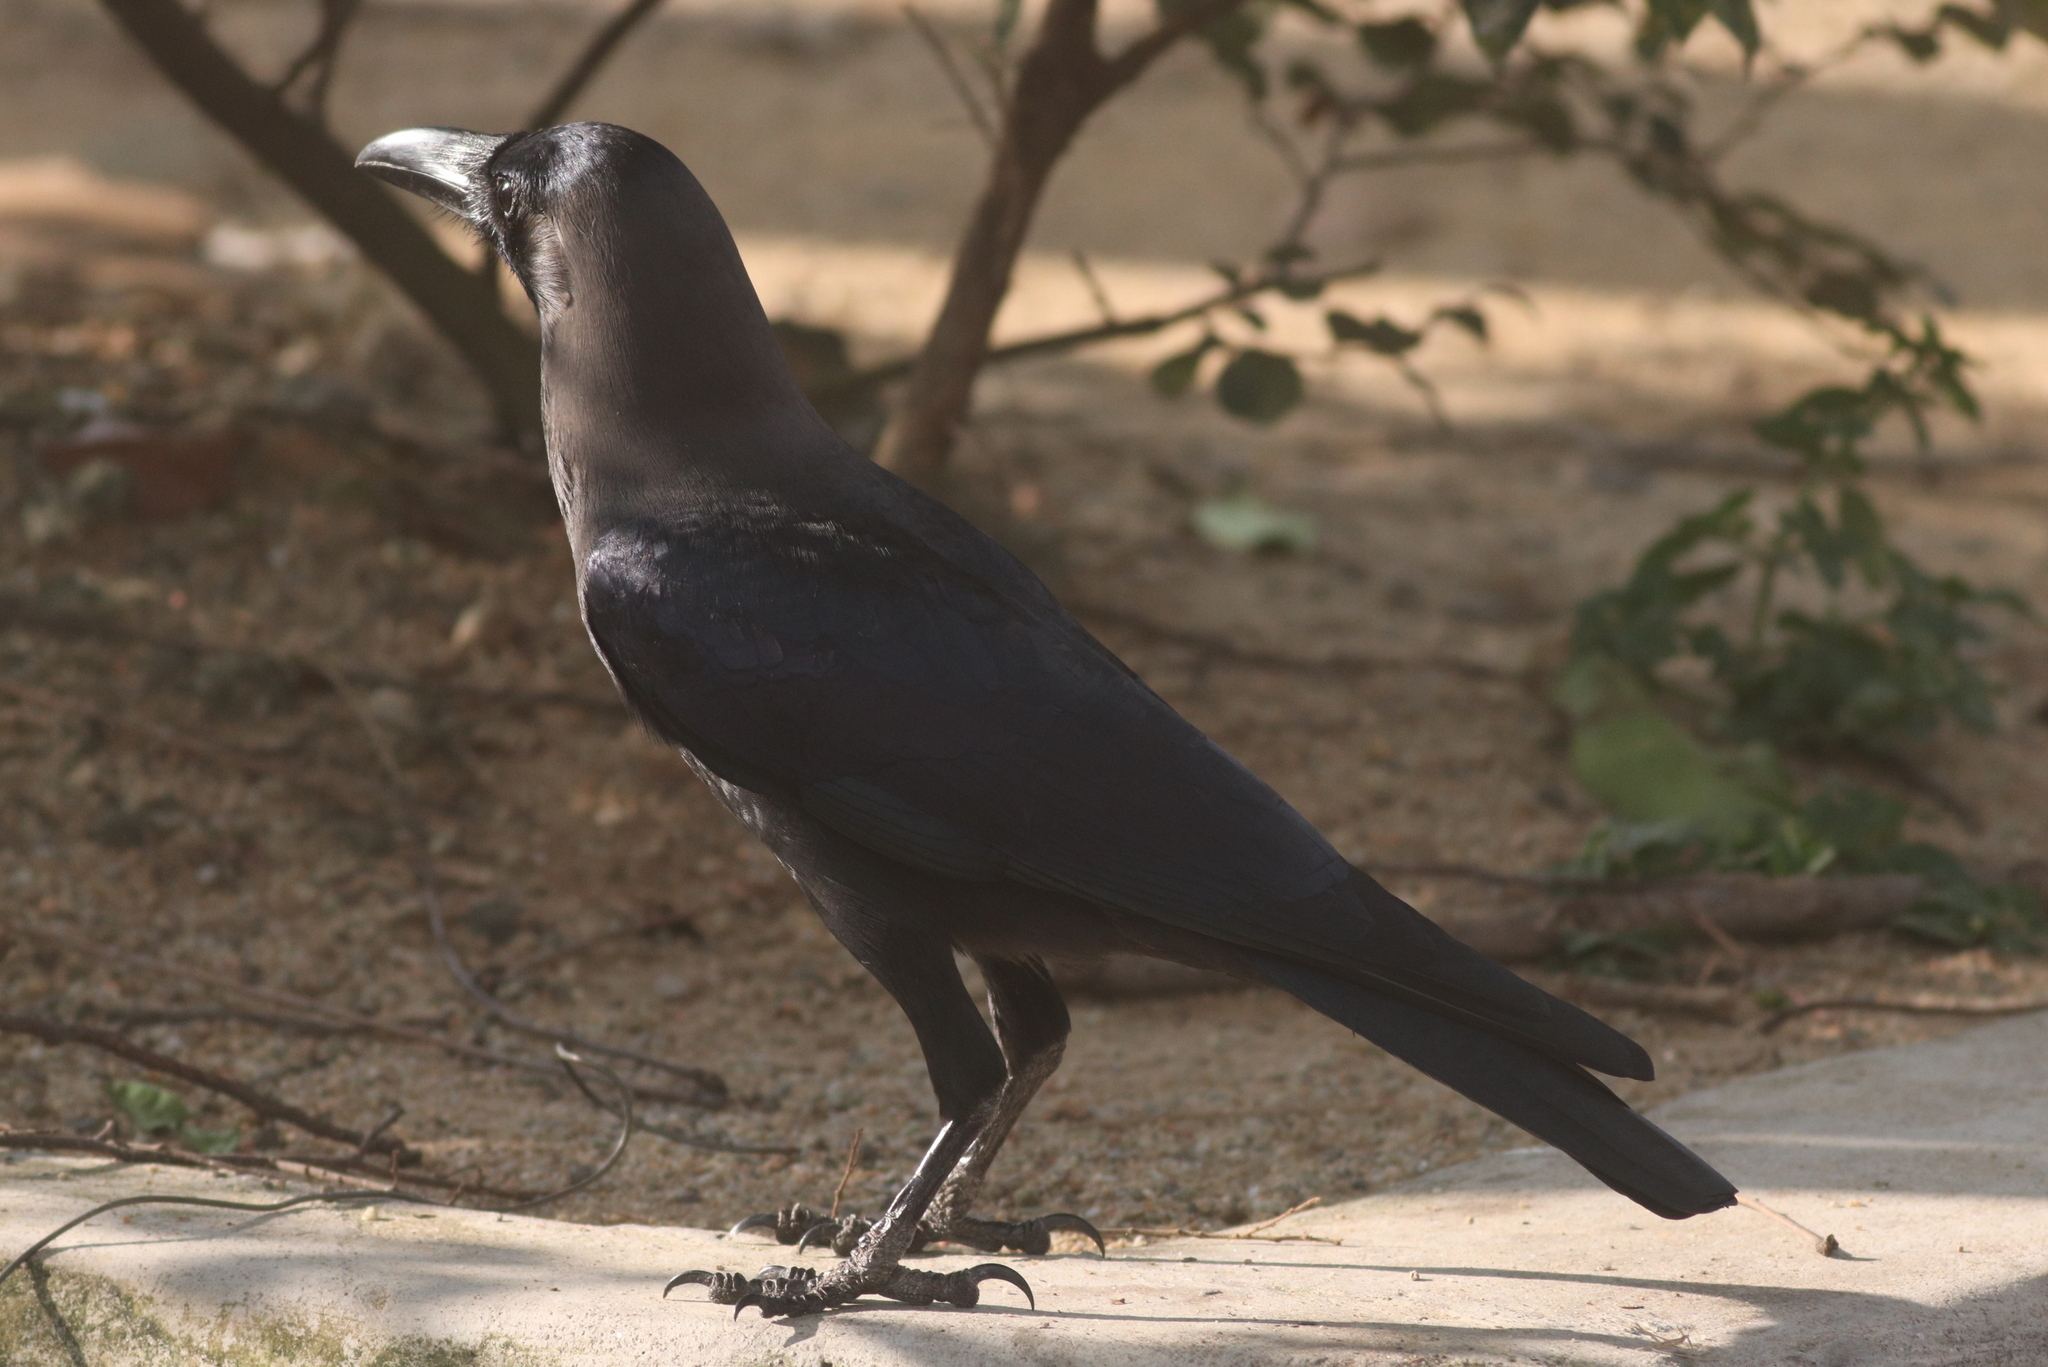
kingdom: Animalia
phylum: Chordata
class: Aves
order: Passeriformes
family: Corvidae
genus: Corvus
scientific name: Corvus splendens
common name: House crow
